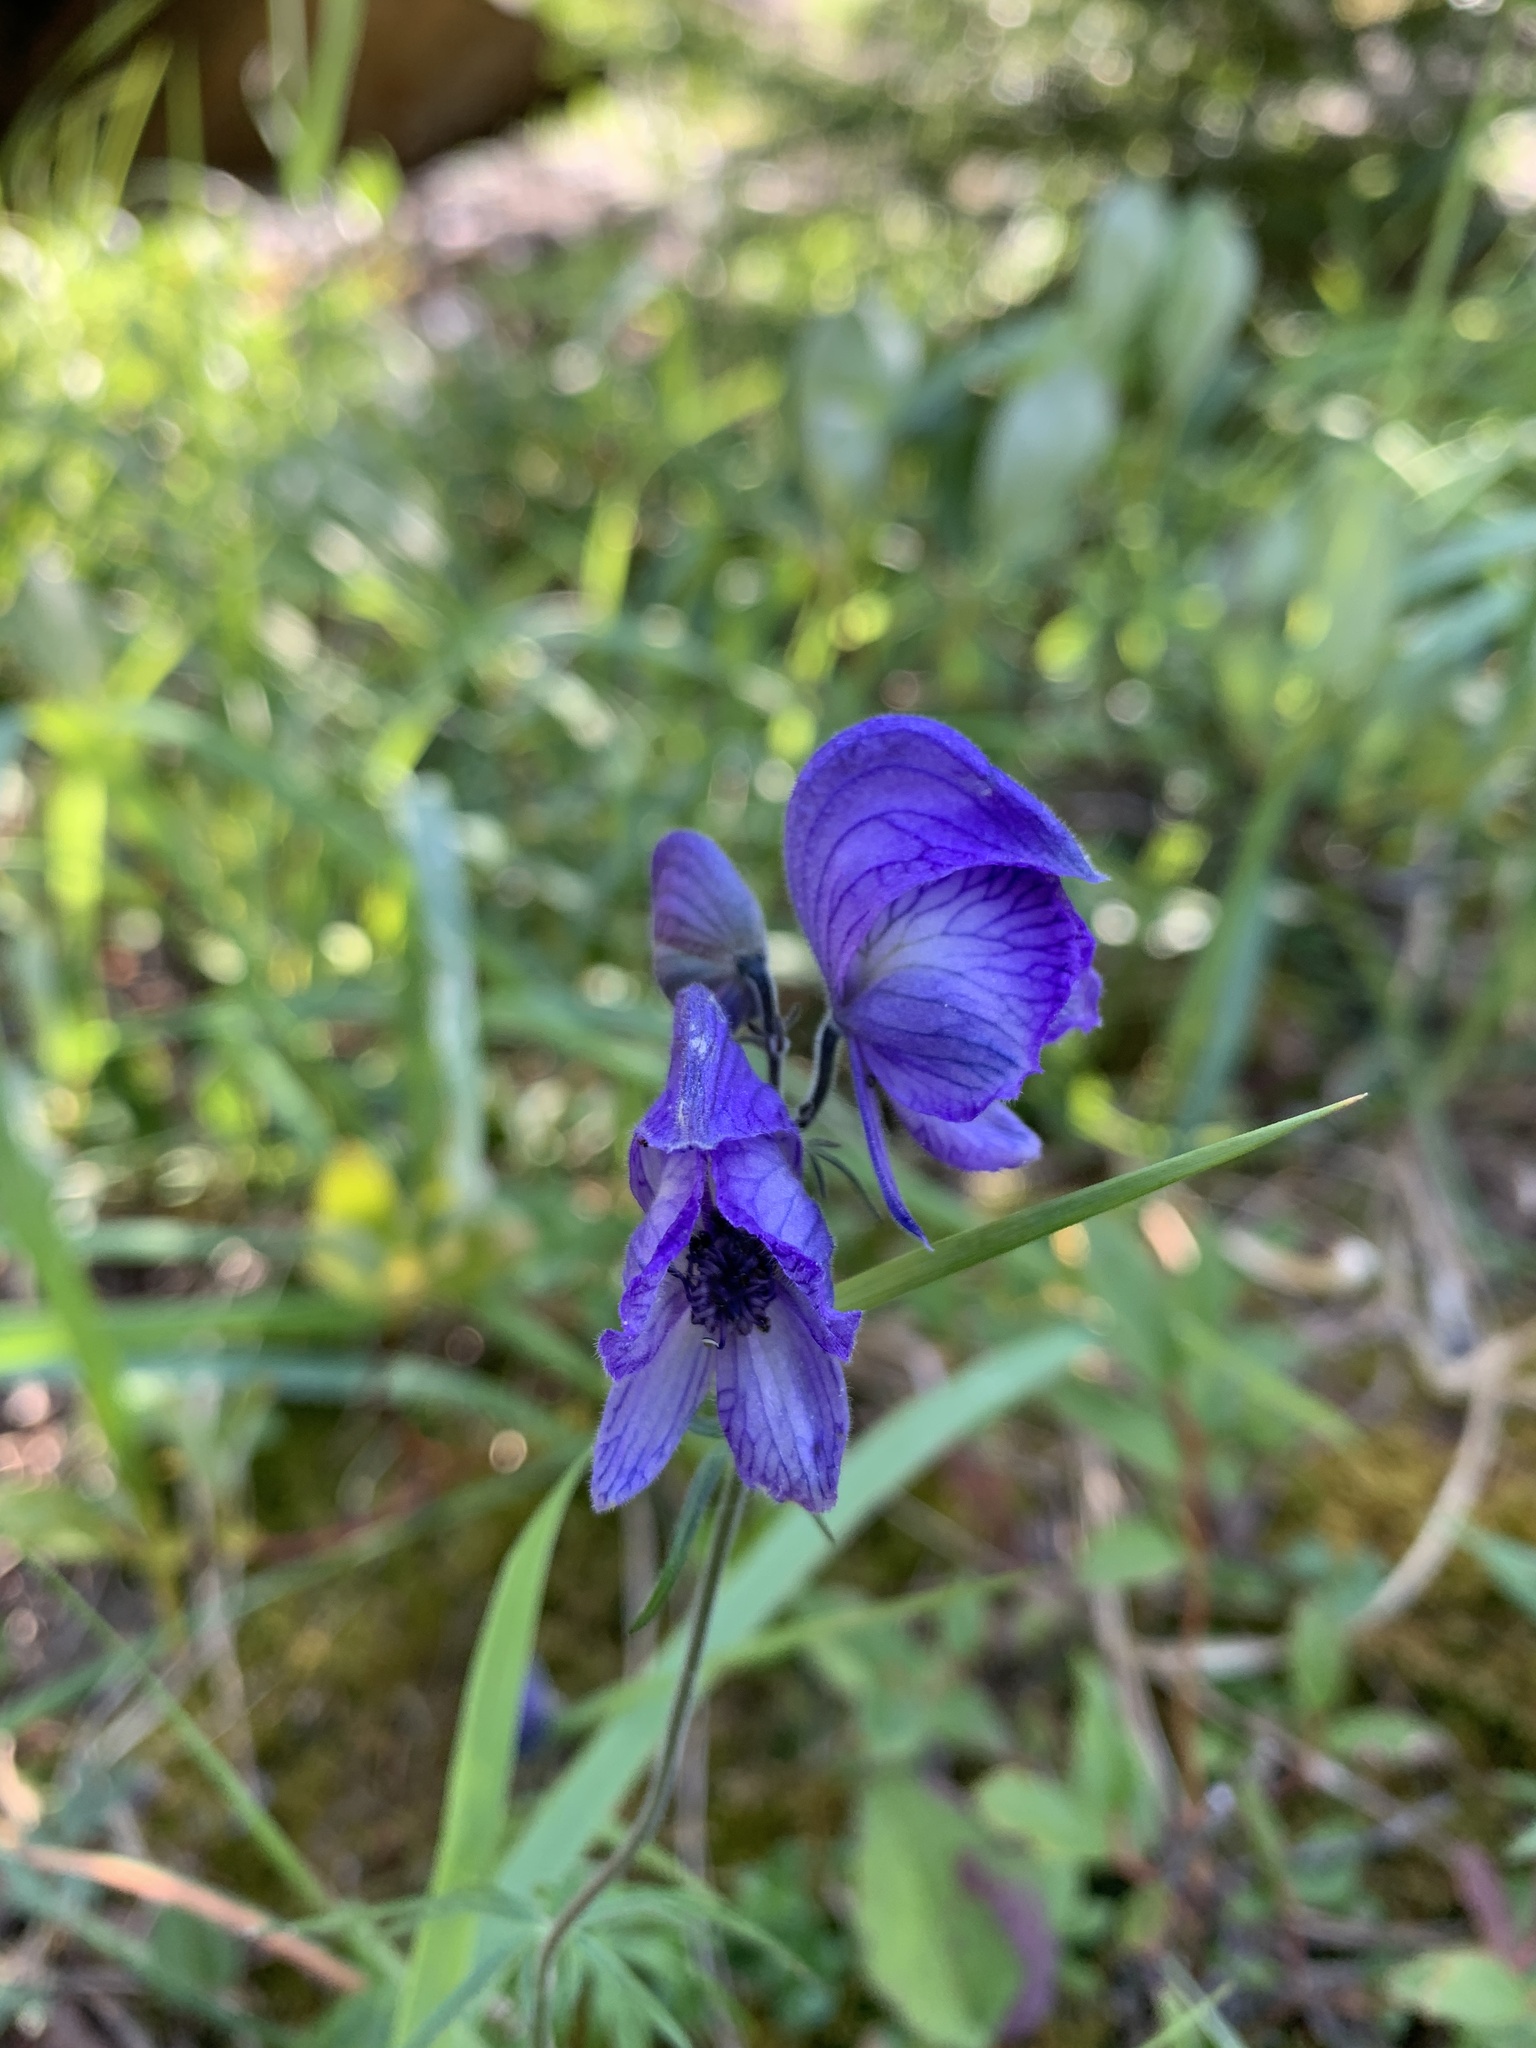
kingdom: Plantae
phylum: Tracheophyta
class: Magnoliopsida
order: Ranunculales
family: Ranunculaceae
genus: Aconitum
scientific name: Aconitum delphiniifolium
